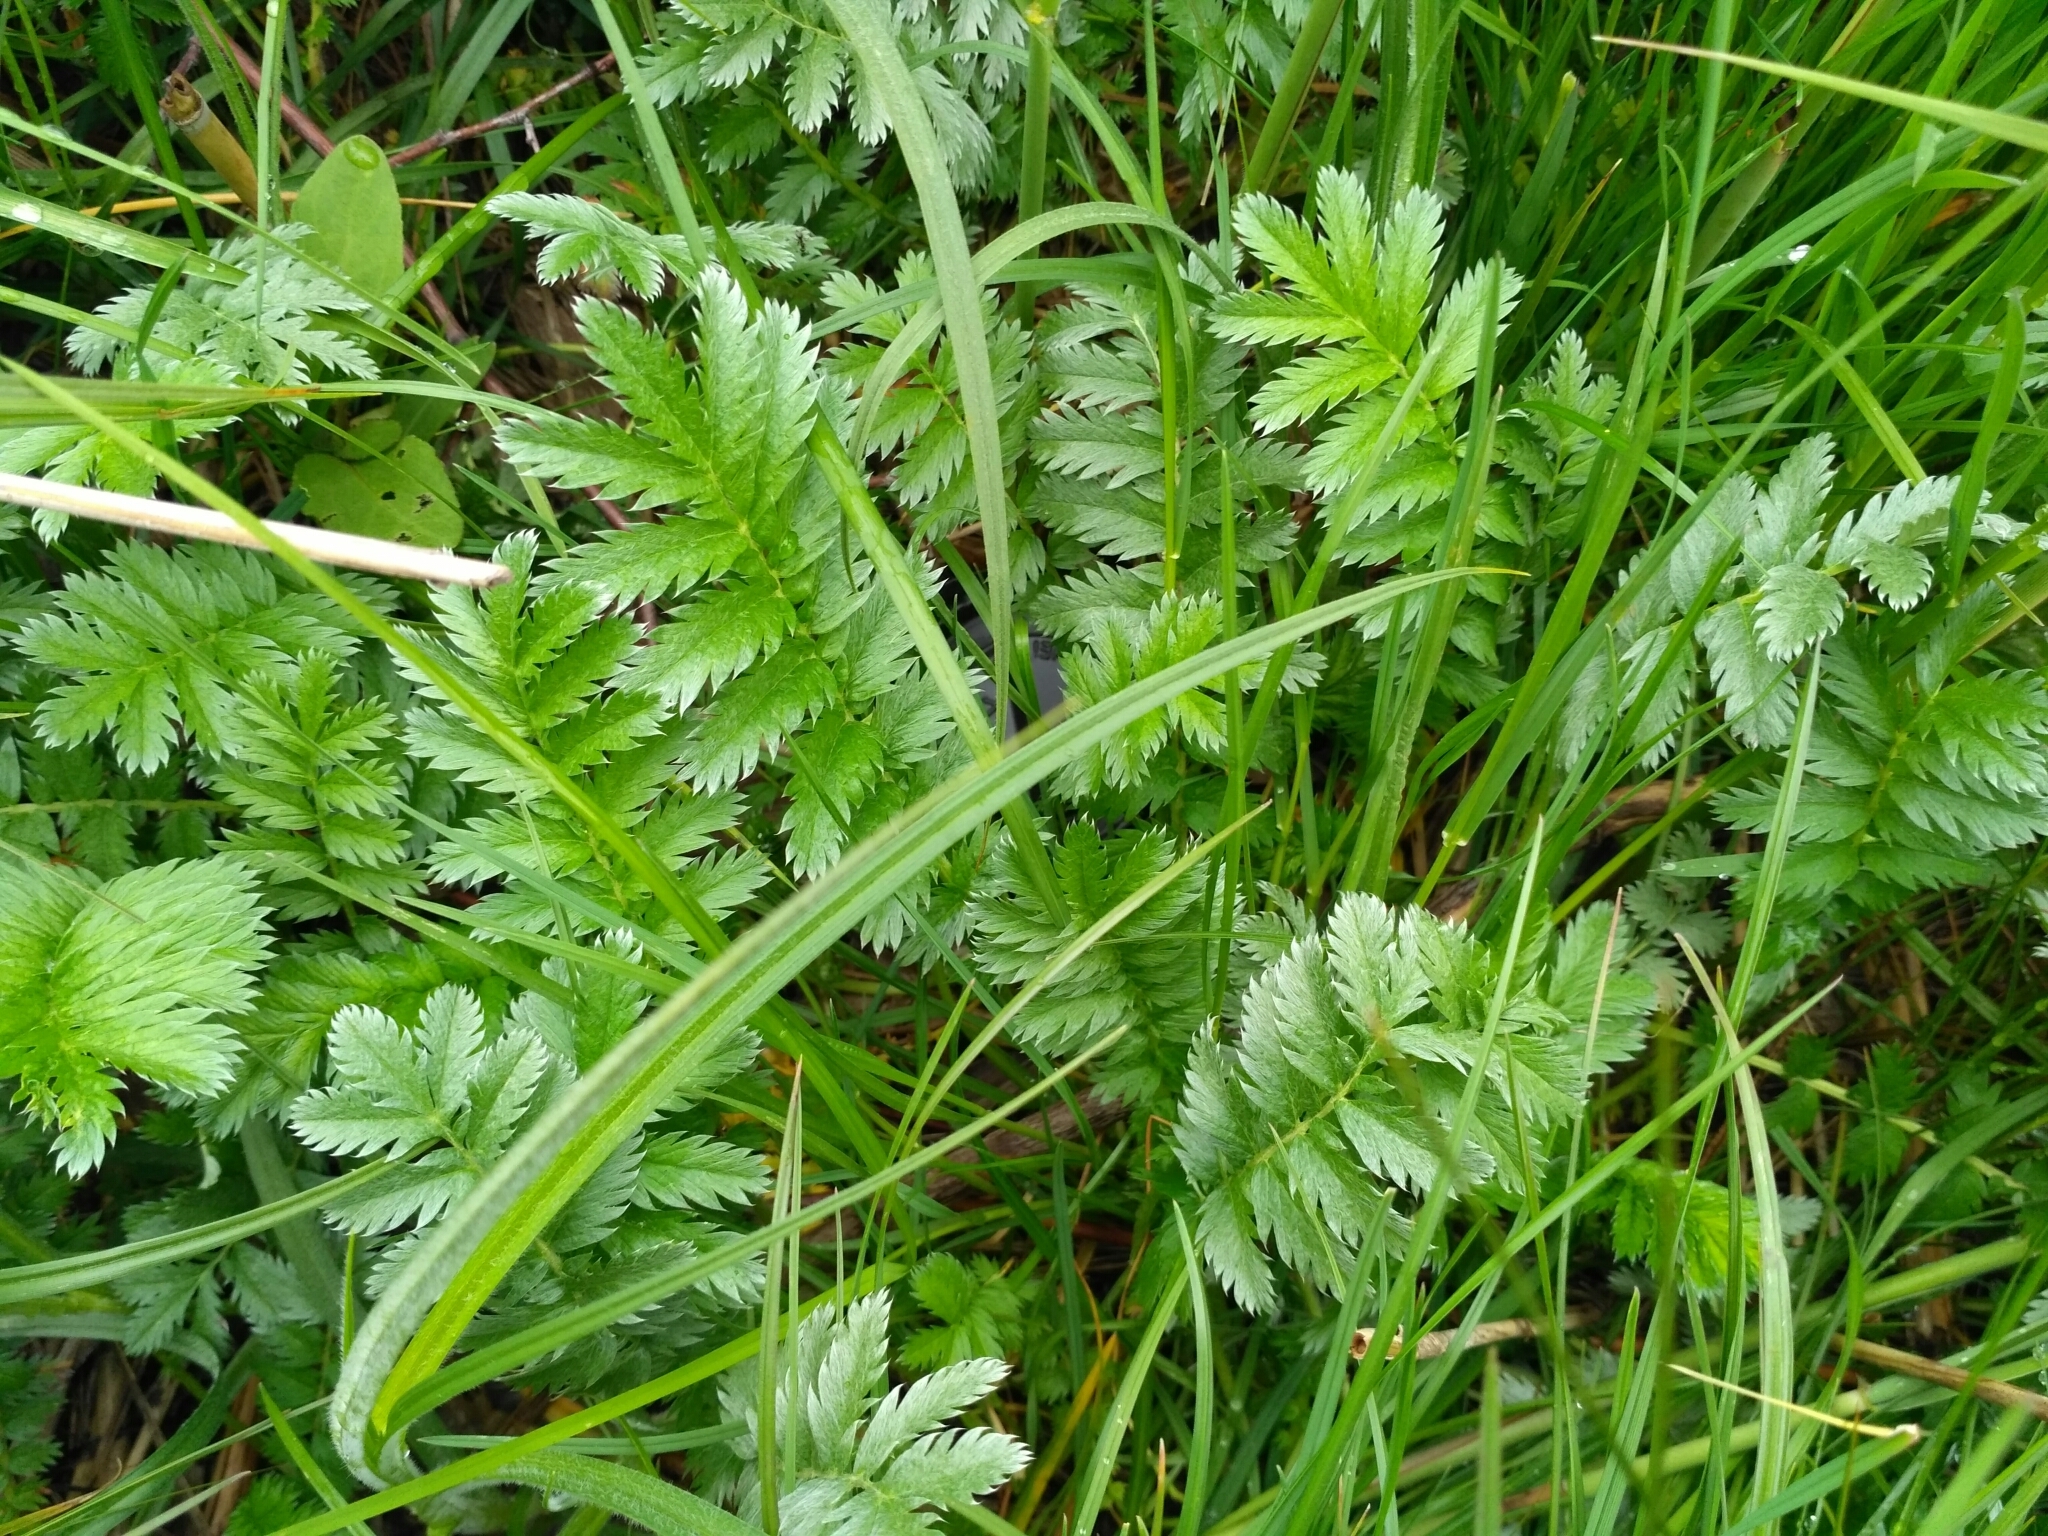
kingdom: Plantae
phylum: Tracheophyta
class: Magnoliopsida
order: Rosales
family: Rosaceae
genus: Argentina
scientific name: Argentina anserina
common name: Common silverweed
